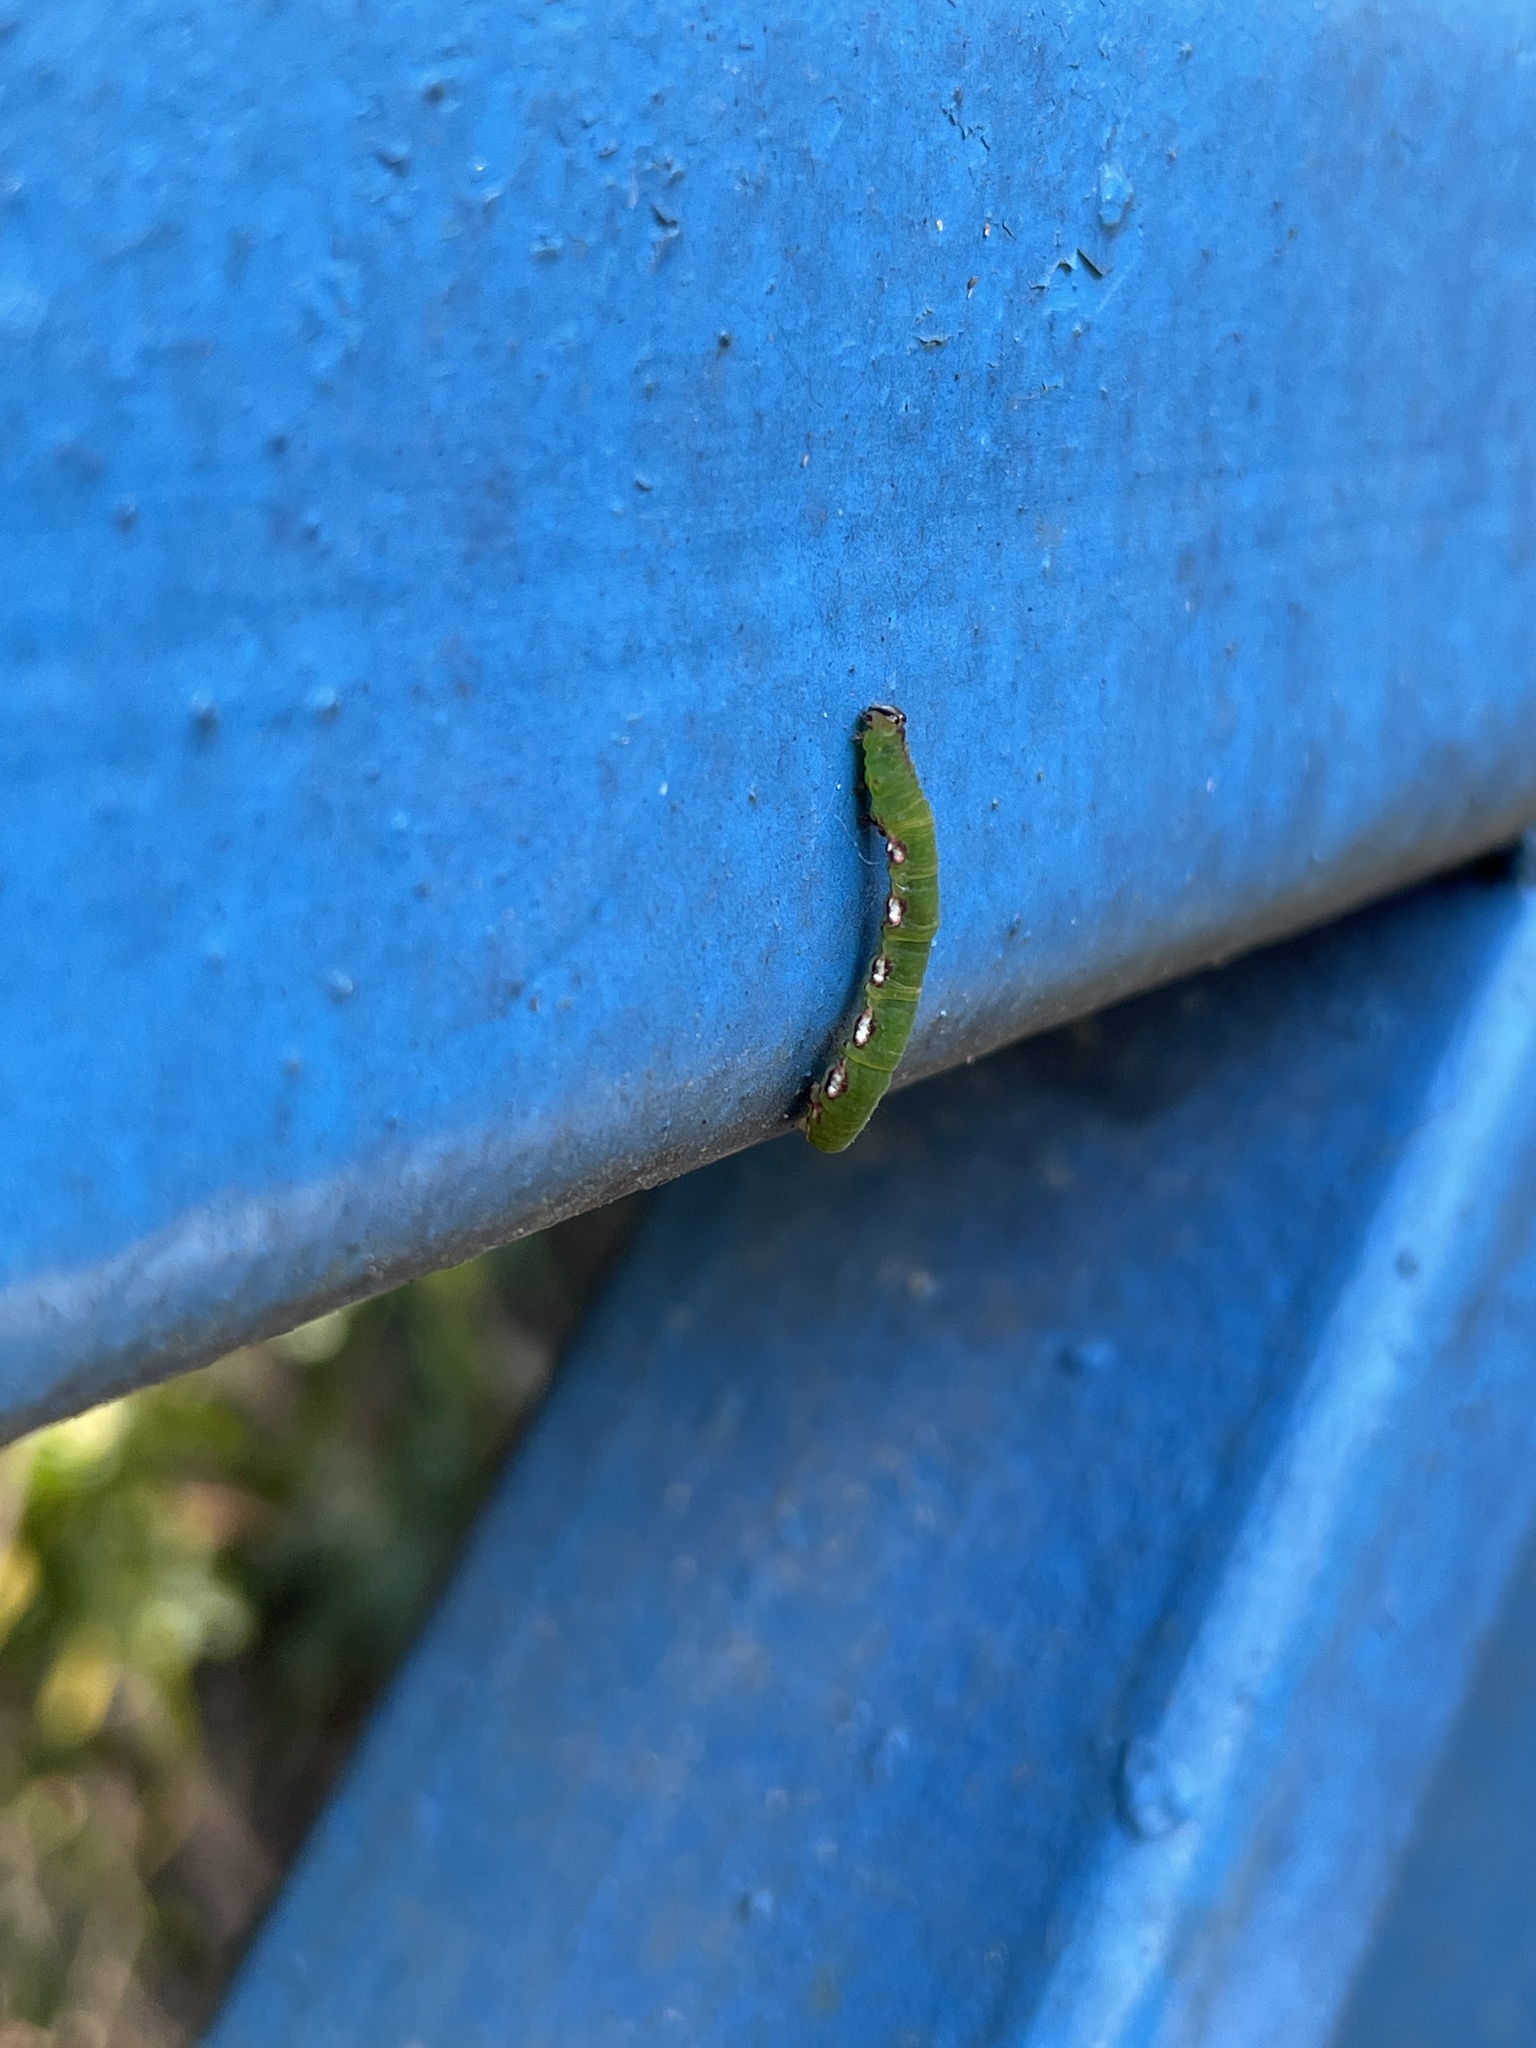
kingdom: Animalia
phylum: Arthropoda
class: Insecta
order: Lepidoptera
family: Geometridae
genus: Corymica
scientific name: Corymica arnearia
